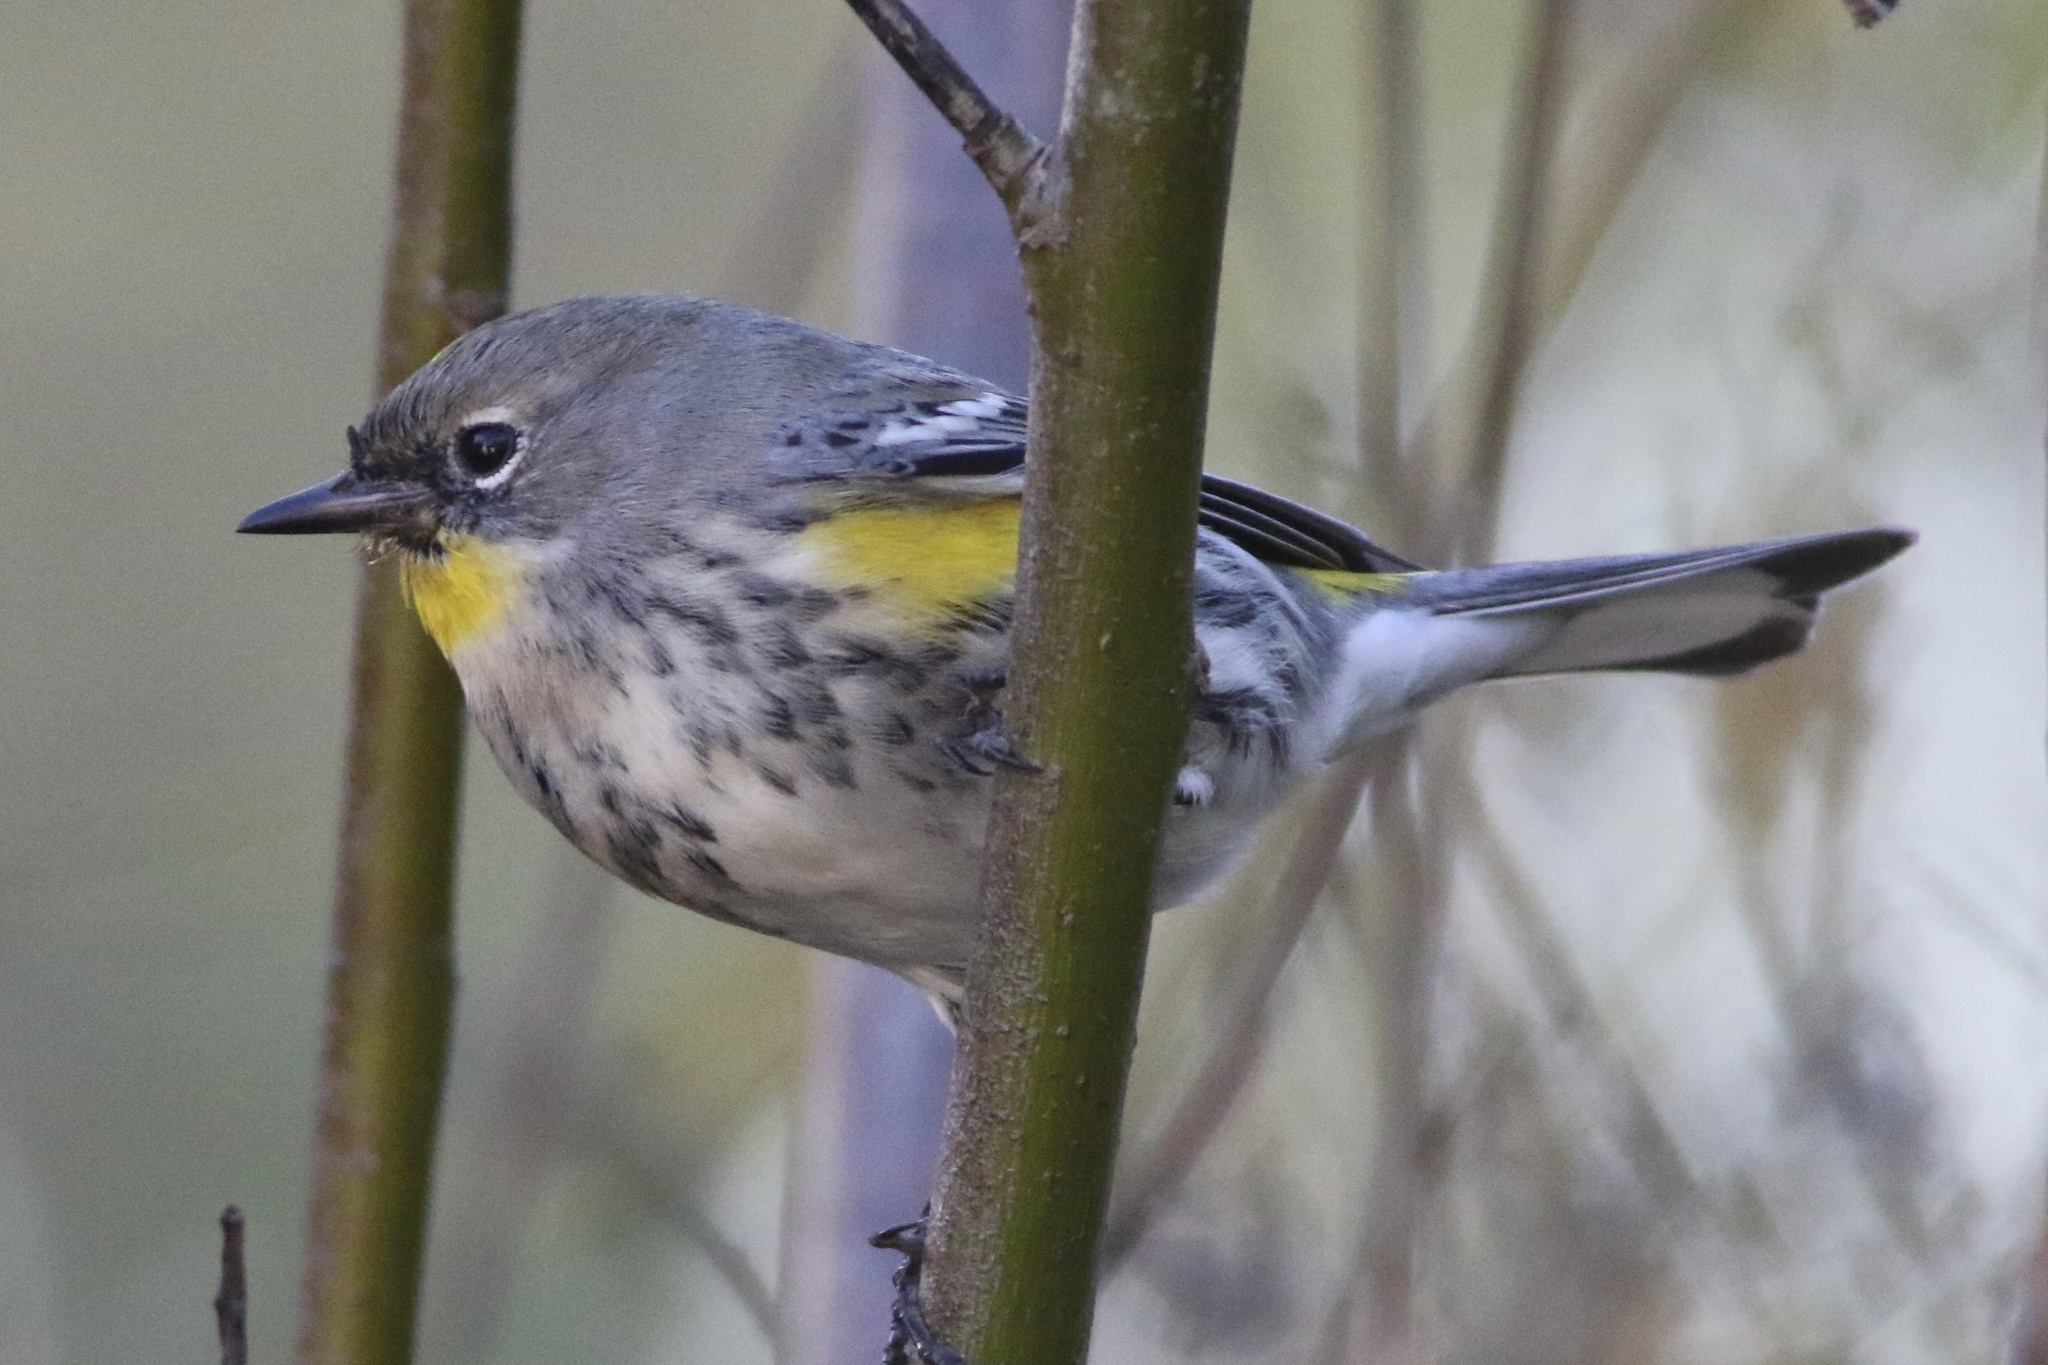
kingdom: Animalia
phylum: Chordata
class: Aves
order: Passeriformes
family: Parulidae
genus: Setophaga
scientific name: Setophaga coronata
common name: Myrtle warbler
